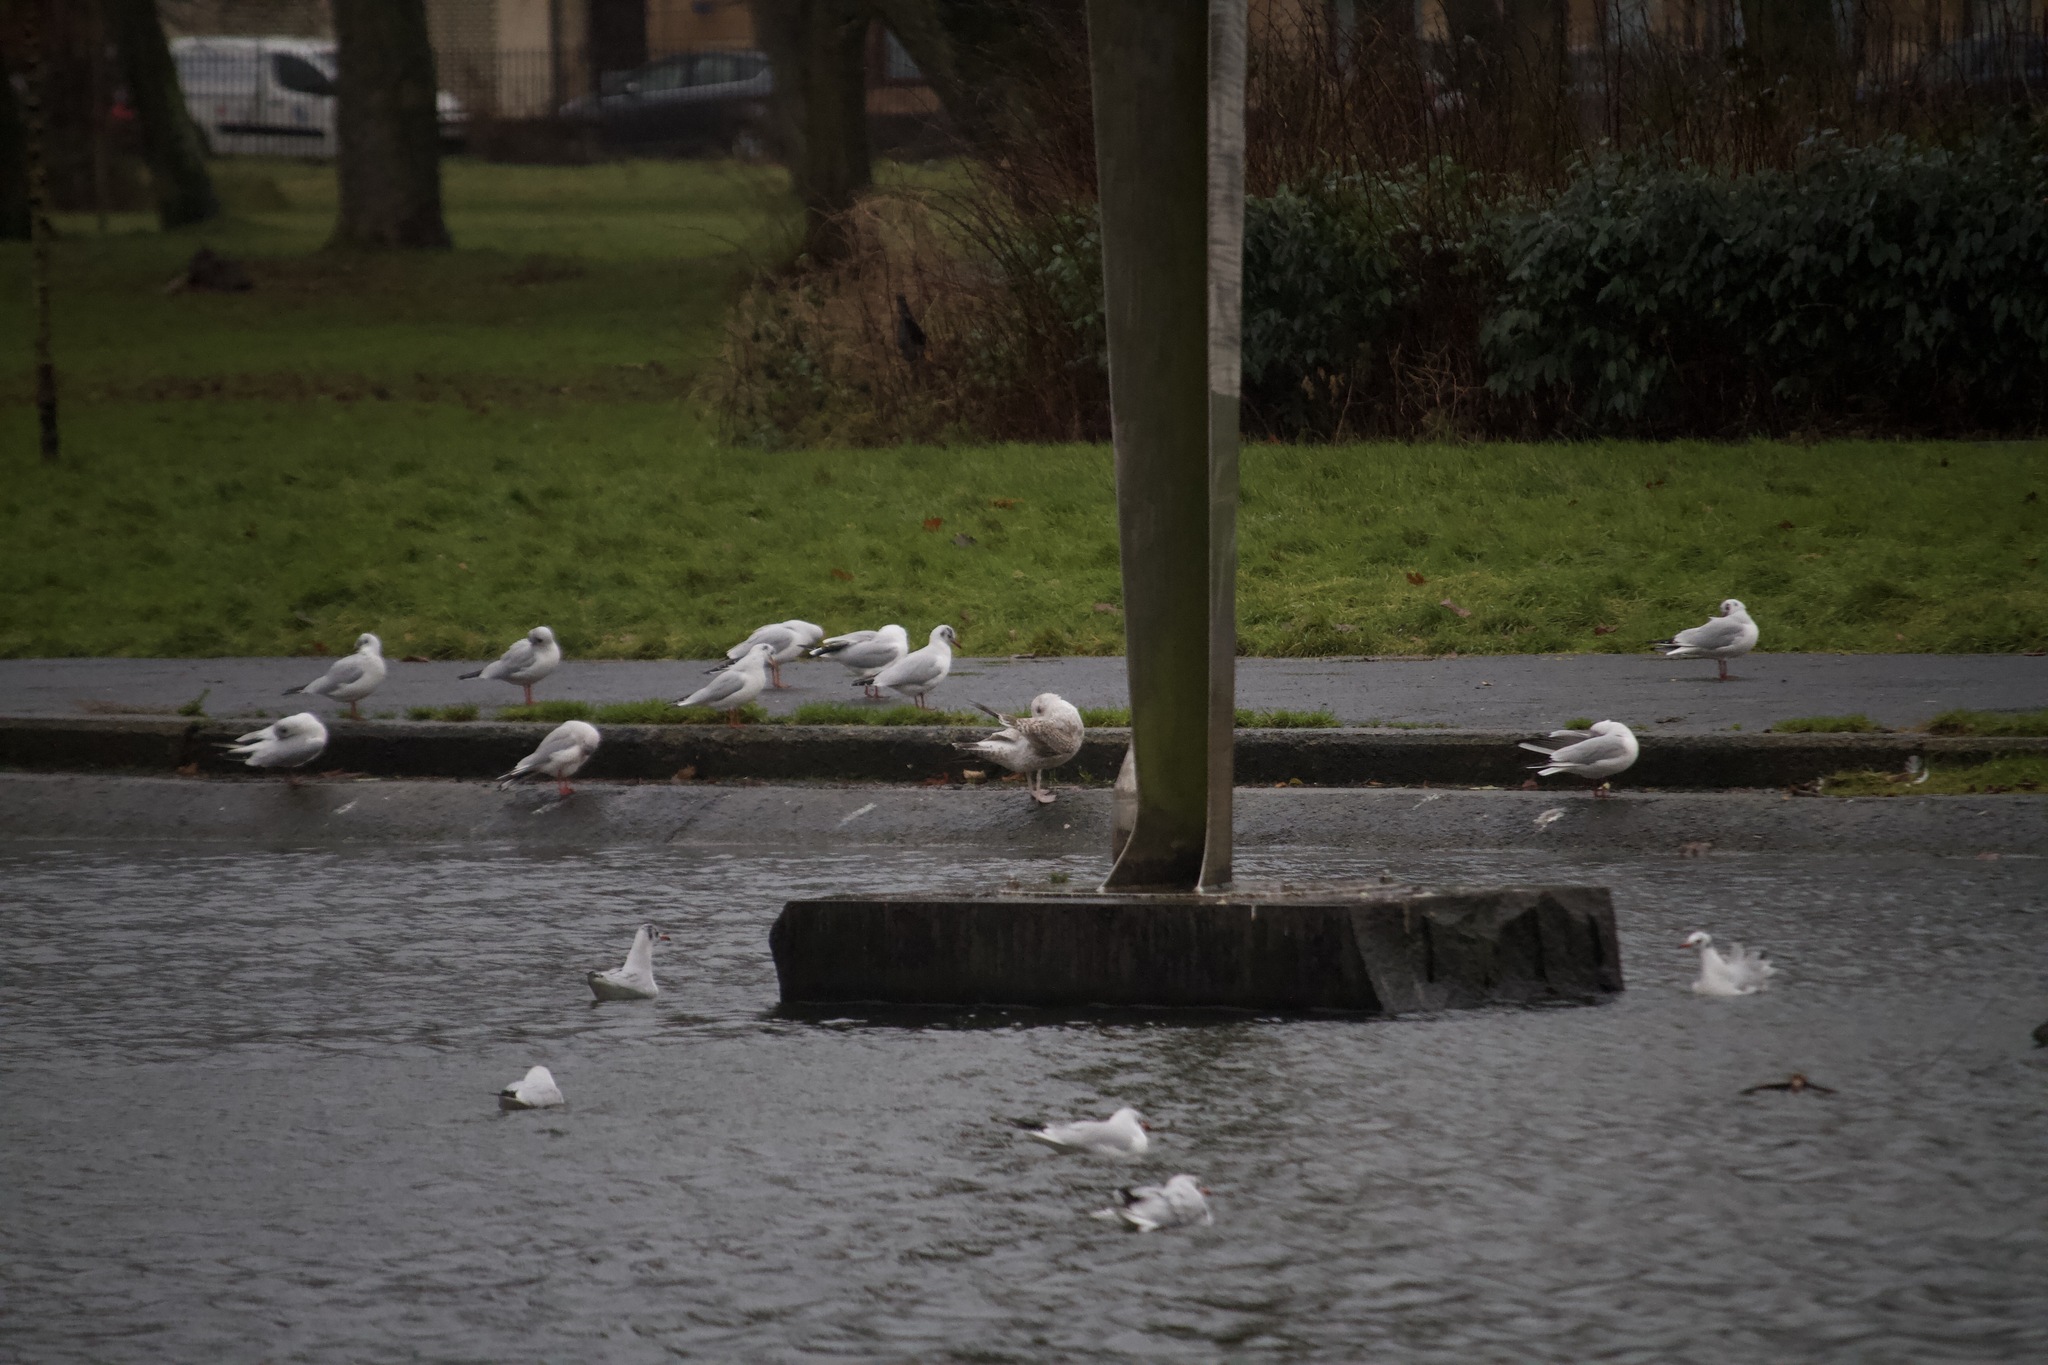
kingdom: Animalia
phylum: Chordata
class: Aves
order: Charadriiformes
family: Laridae
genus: Larus
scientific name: Larus argentatus
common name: Herring gull
